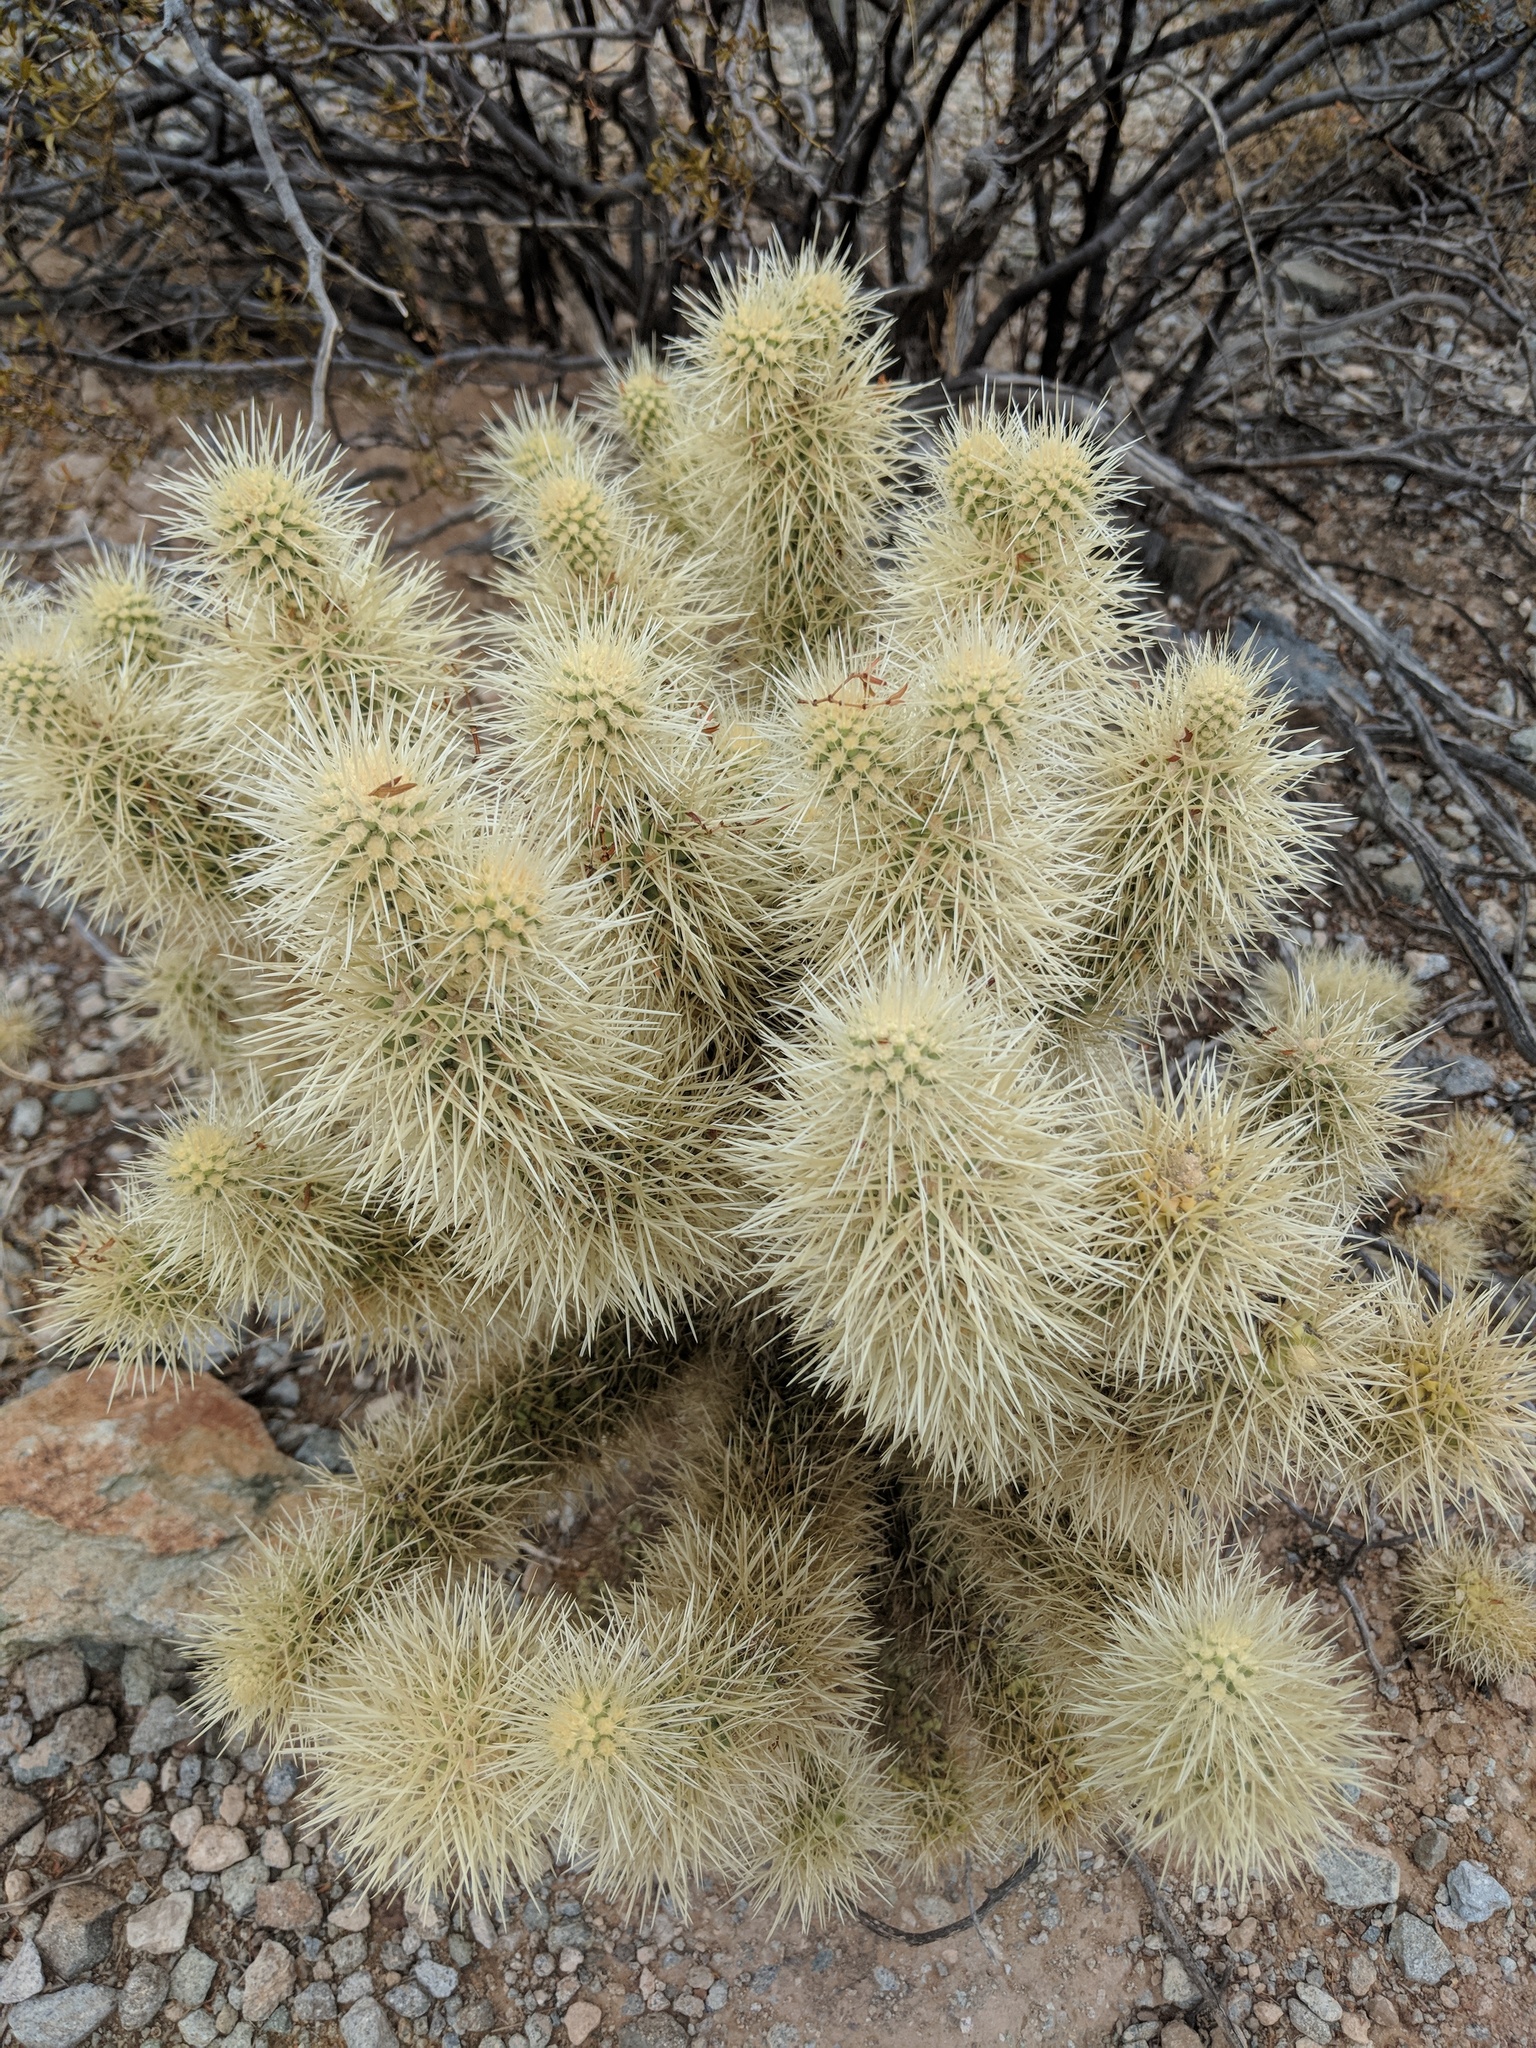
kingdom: Plantae
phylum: Tracheophyta
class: Magnoliopsida
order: Caryophyllales
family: Cactaceae
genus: Cylindropuntia
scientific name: Cylindropuntia fosbergii
